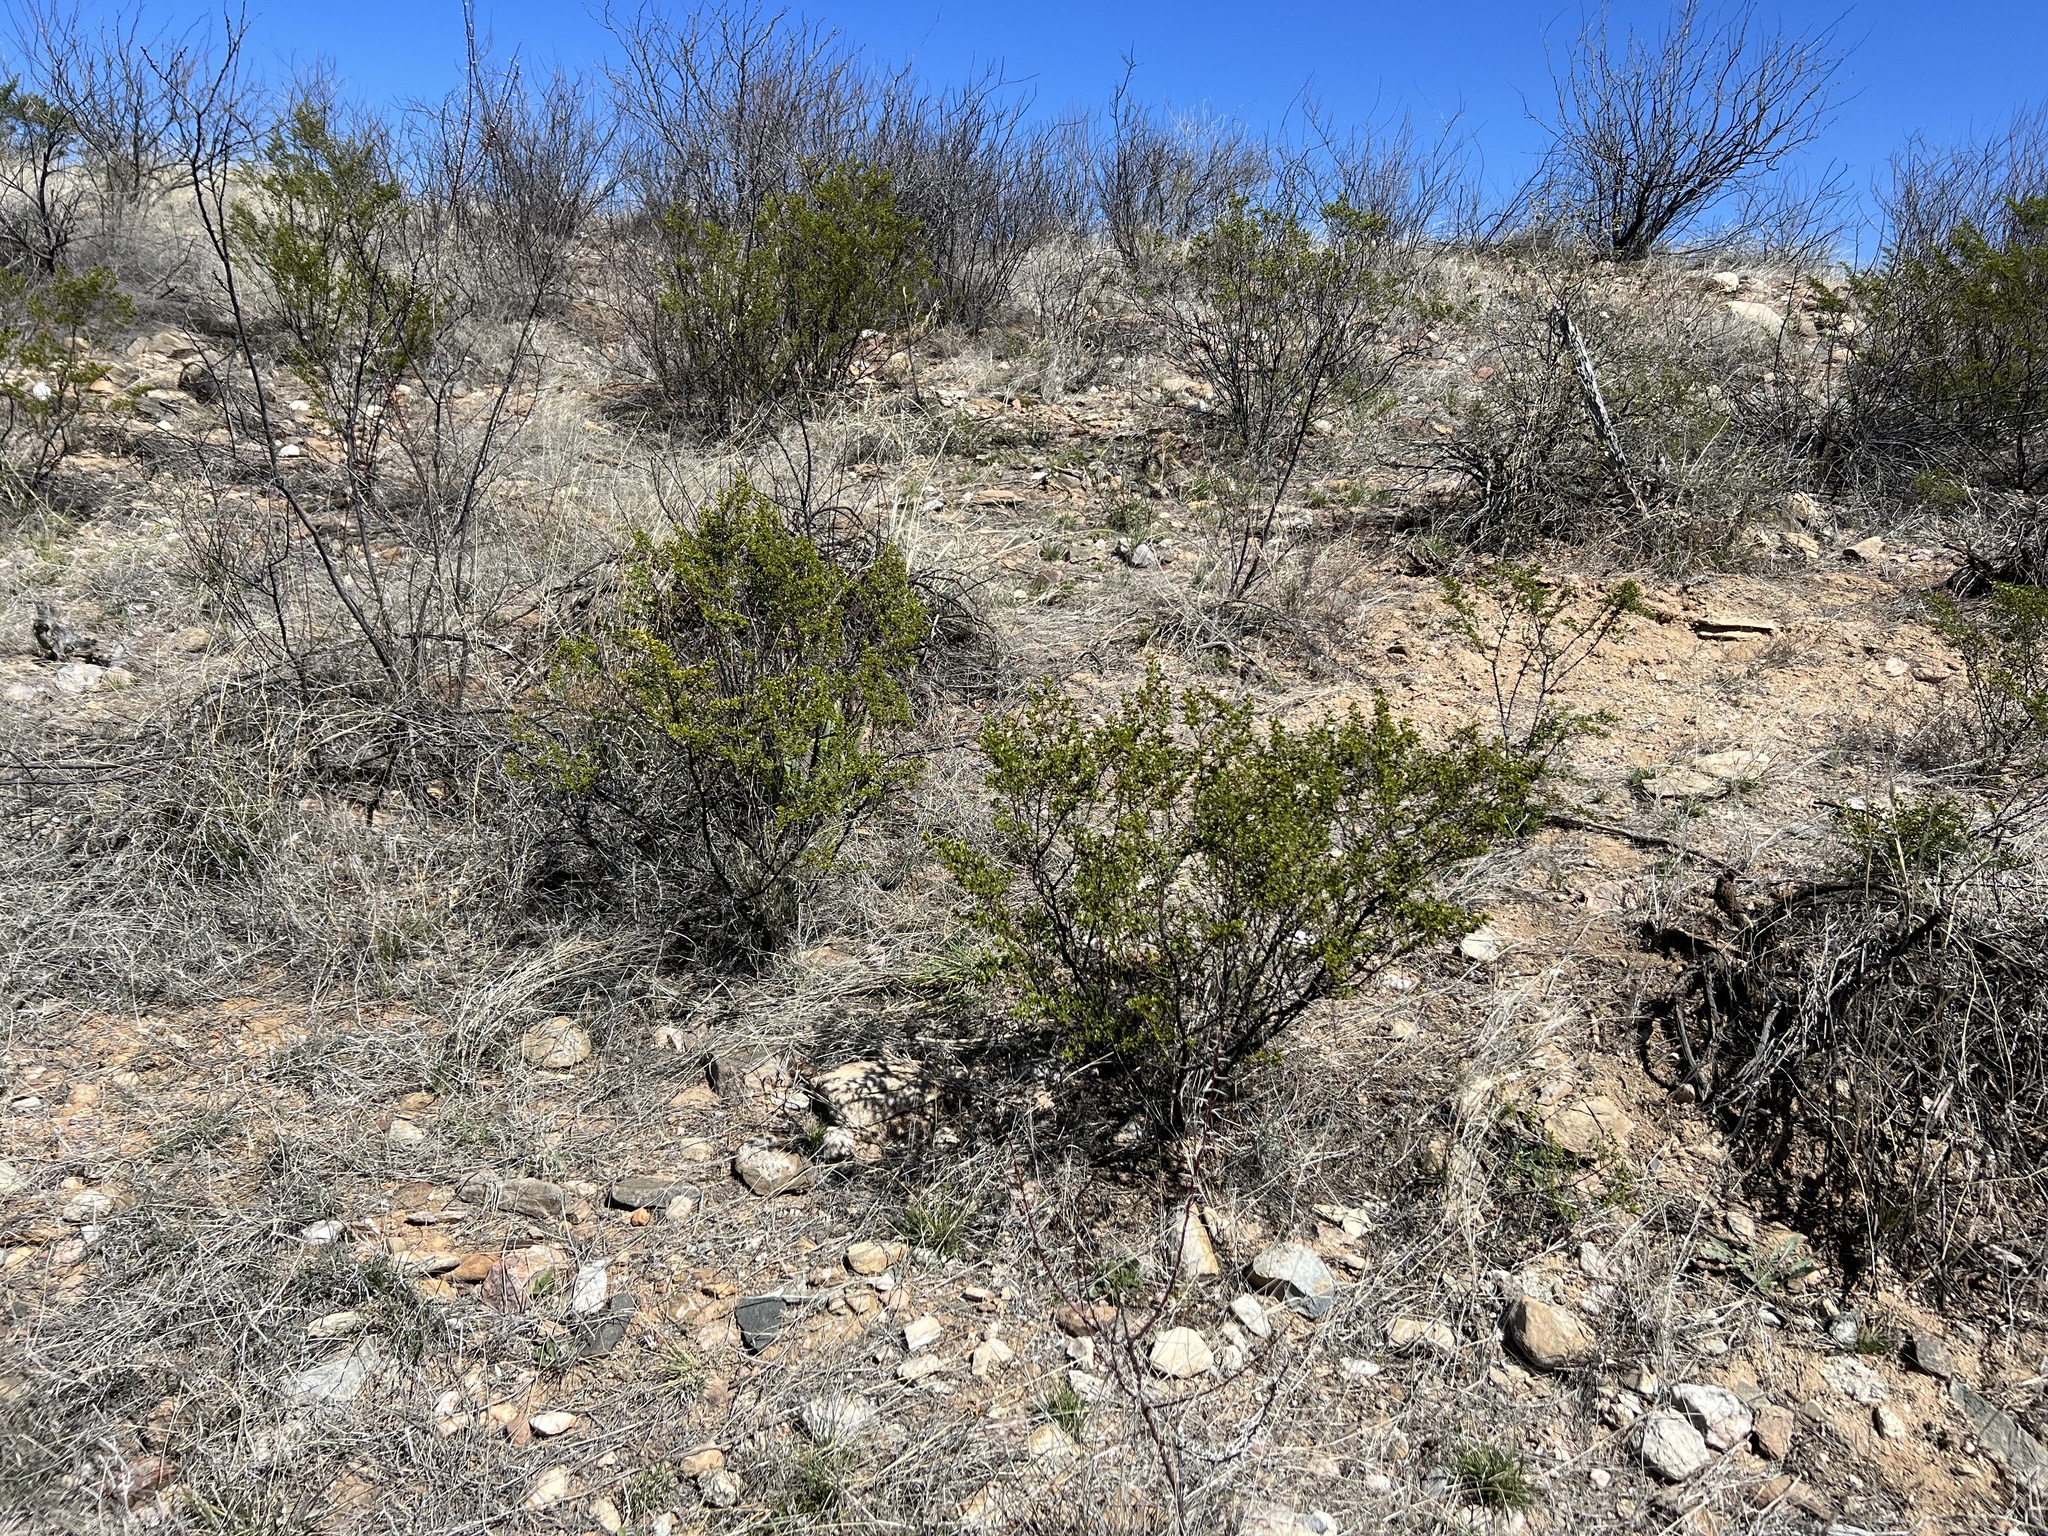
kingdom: Plantae
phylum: Tracheophyta
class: Magnoliopsida
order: Zygophyllales
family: Zygophyllaceae
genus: Larrea
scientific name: Larrea tridentata
